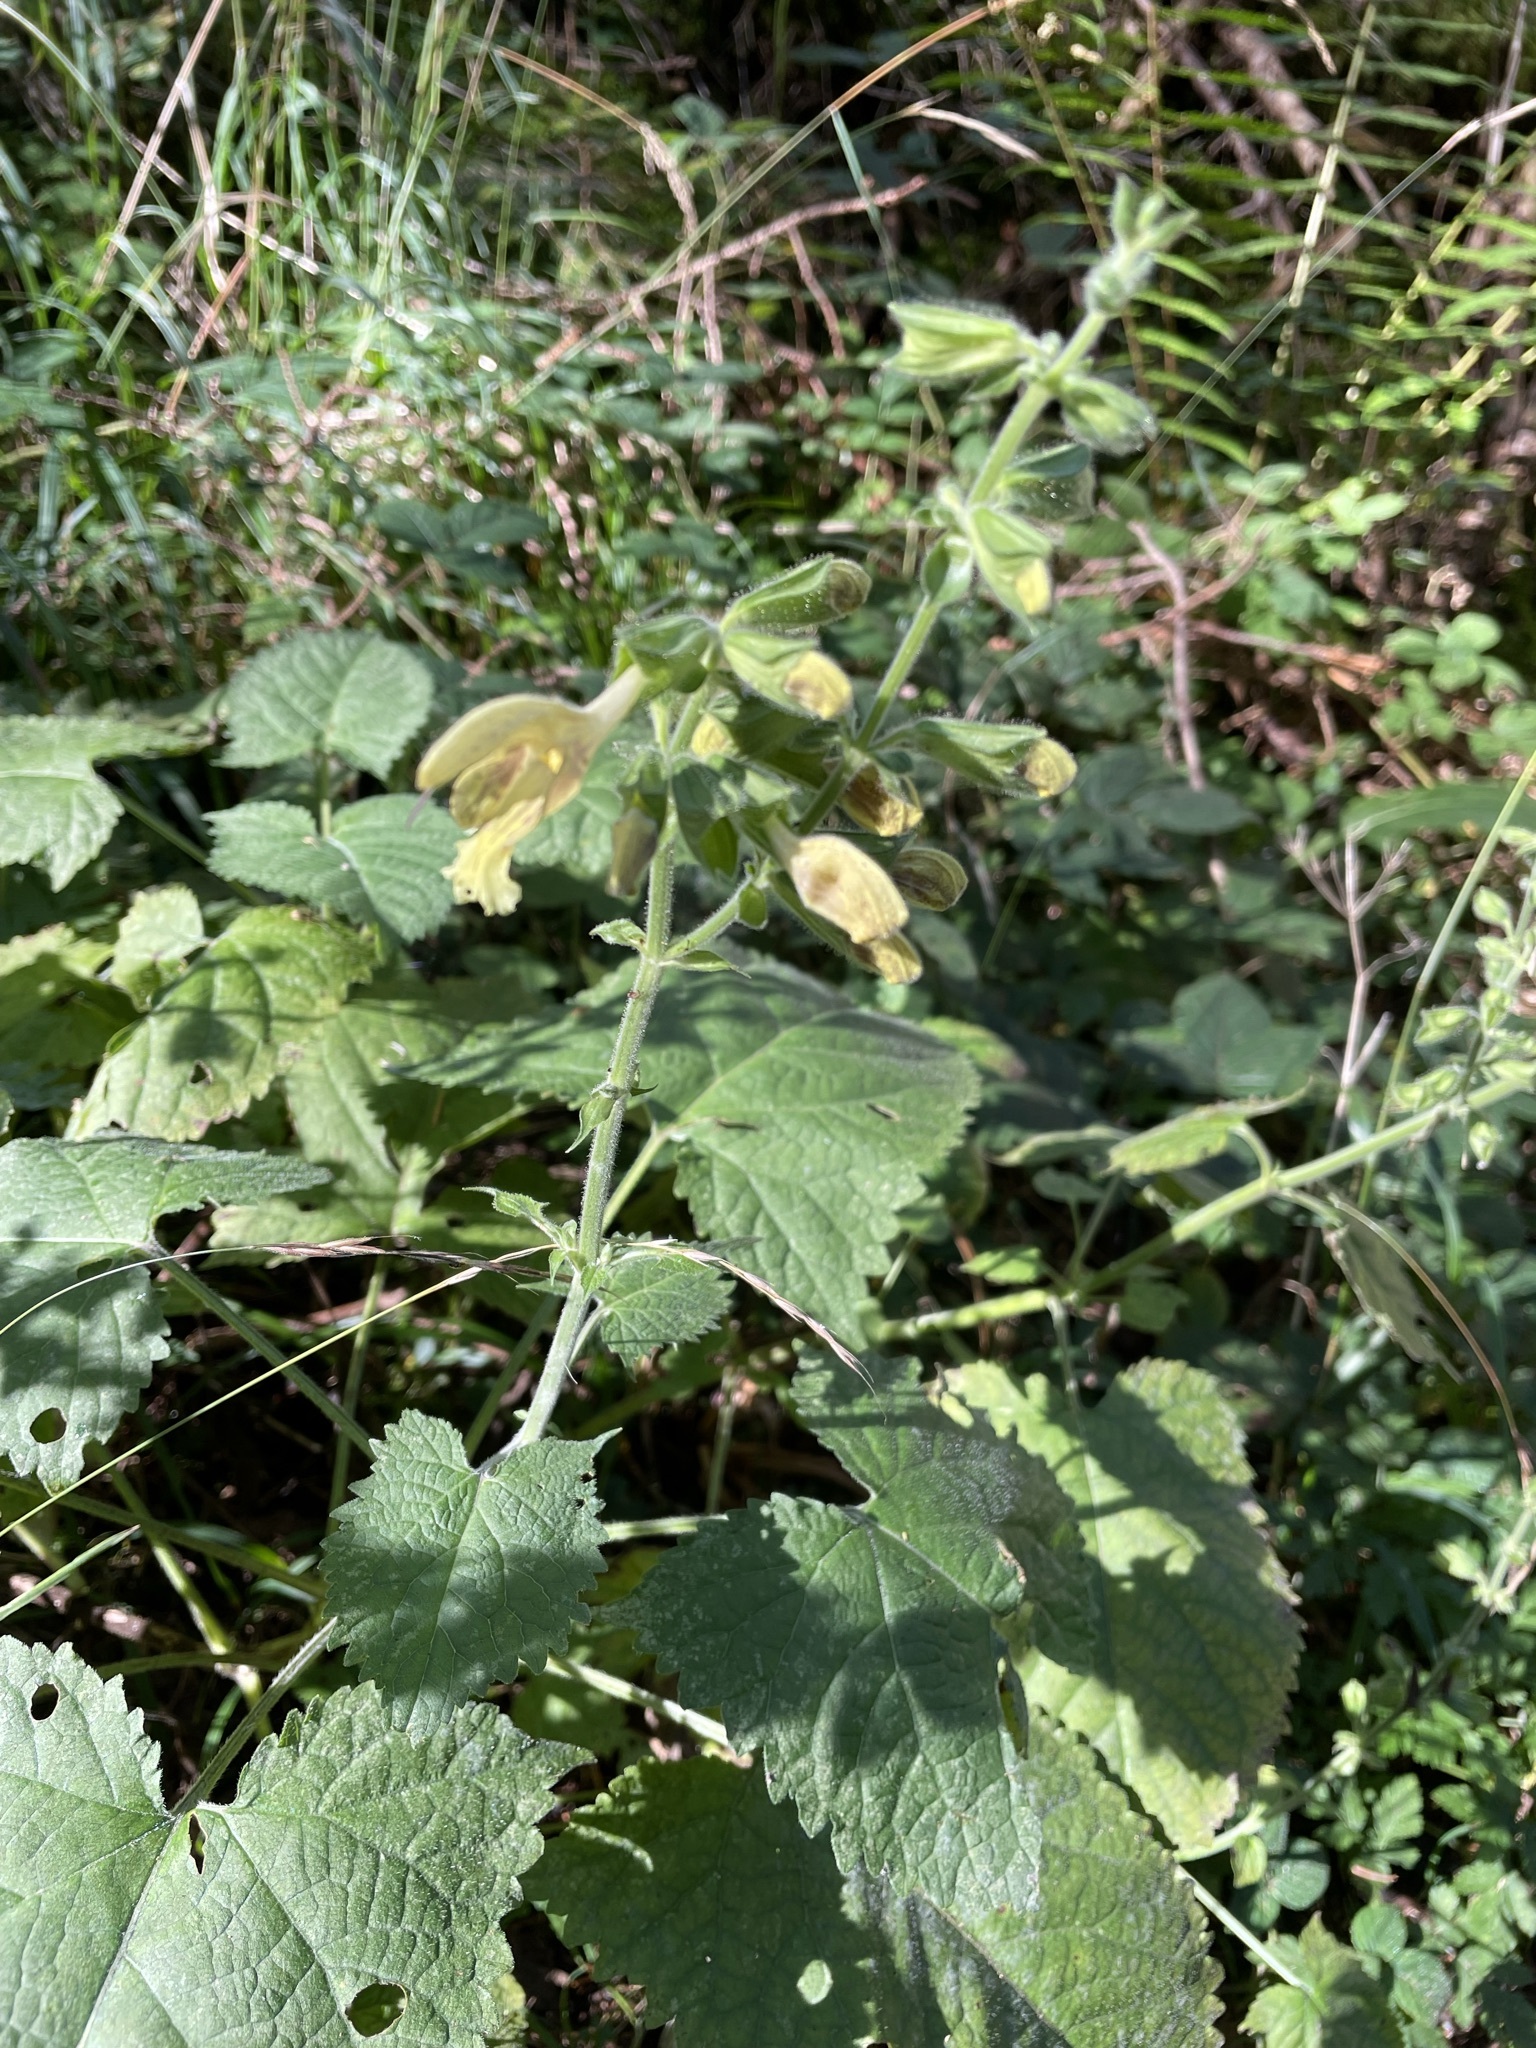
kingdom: Plantae
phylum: Tracheophyta
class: Magnoliopsida
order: Lamiales
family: Lamiaceae
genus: Salvia
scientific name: Salvia glutinosa
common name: Sticky clary
